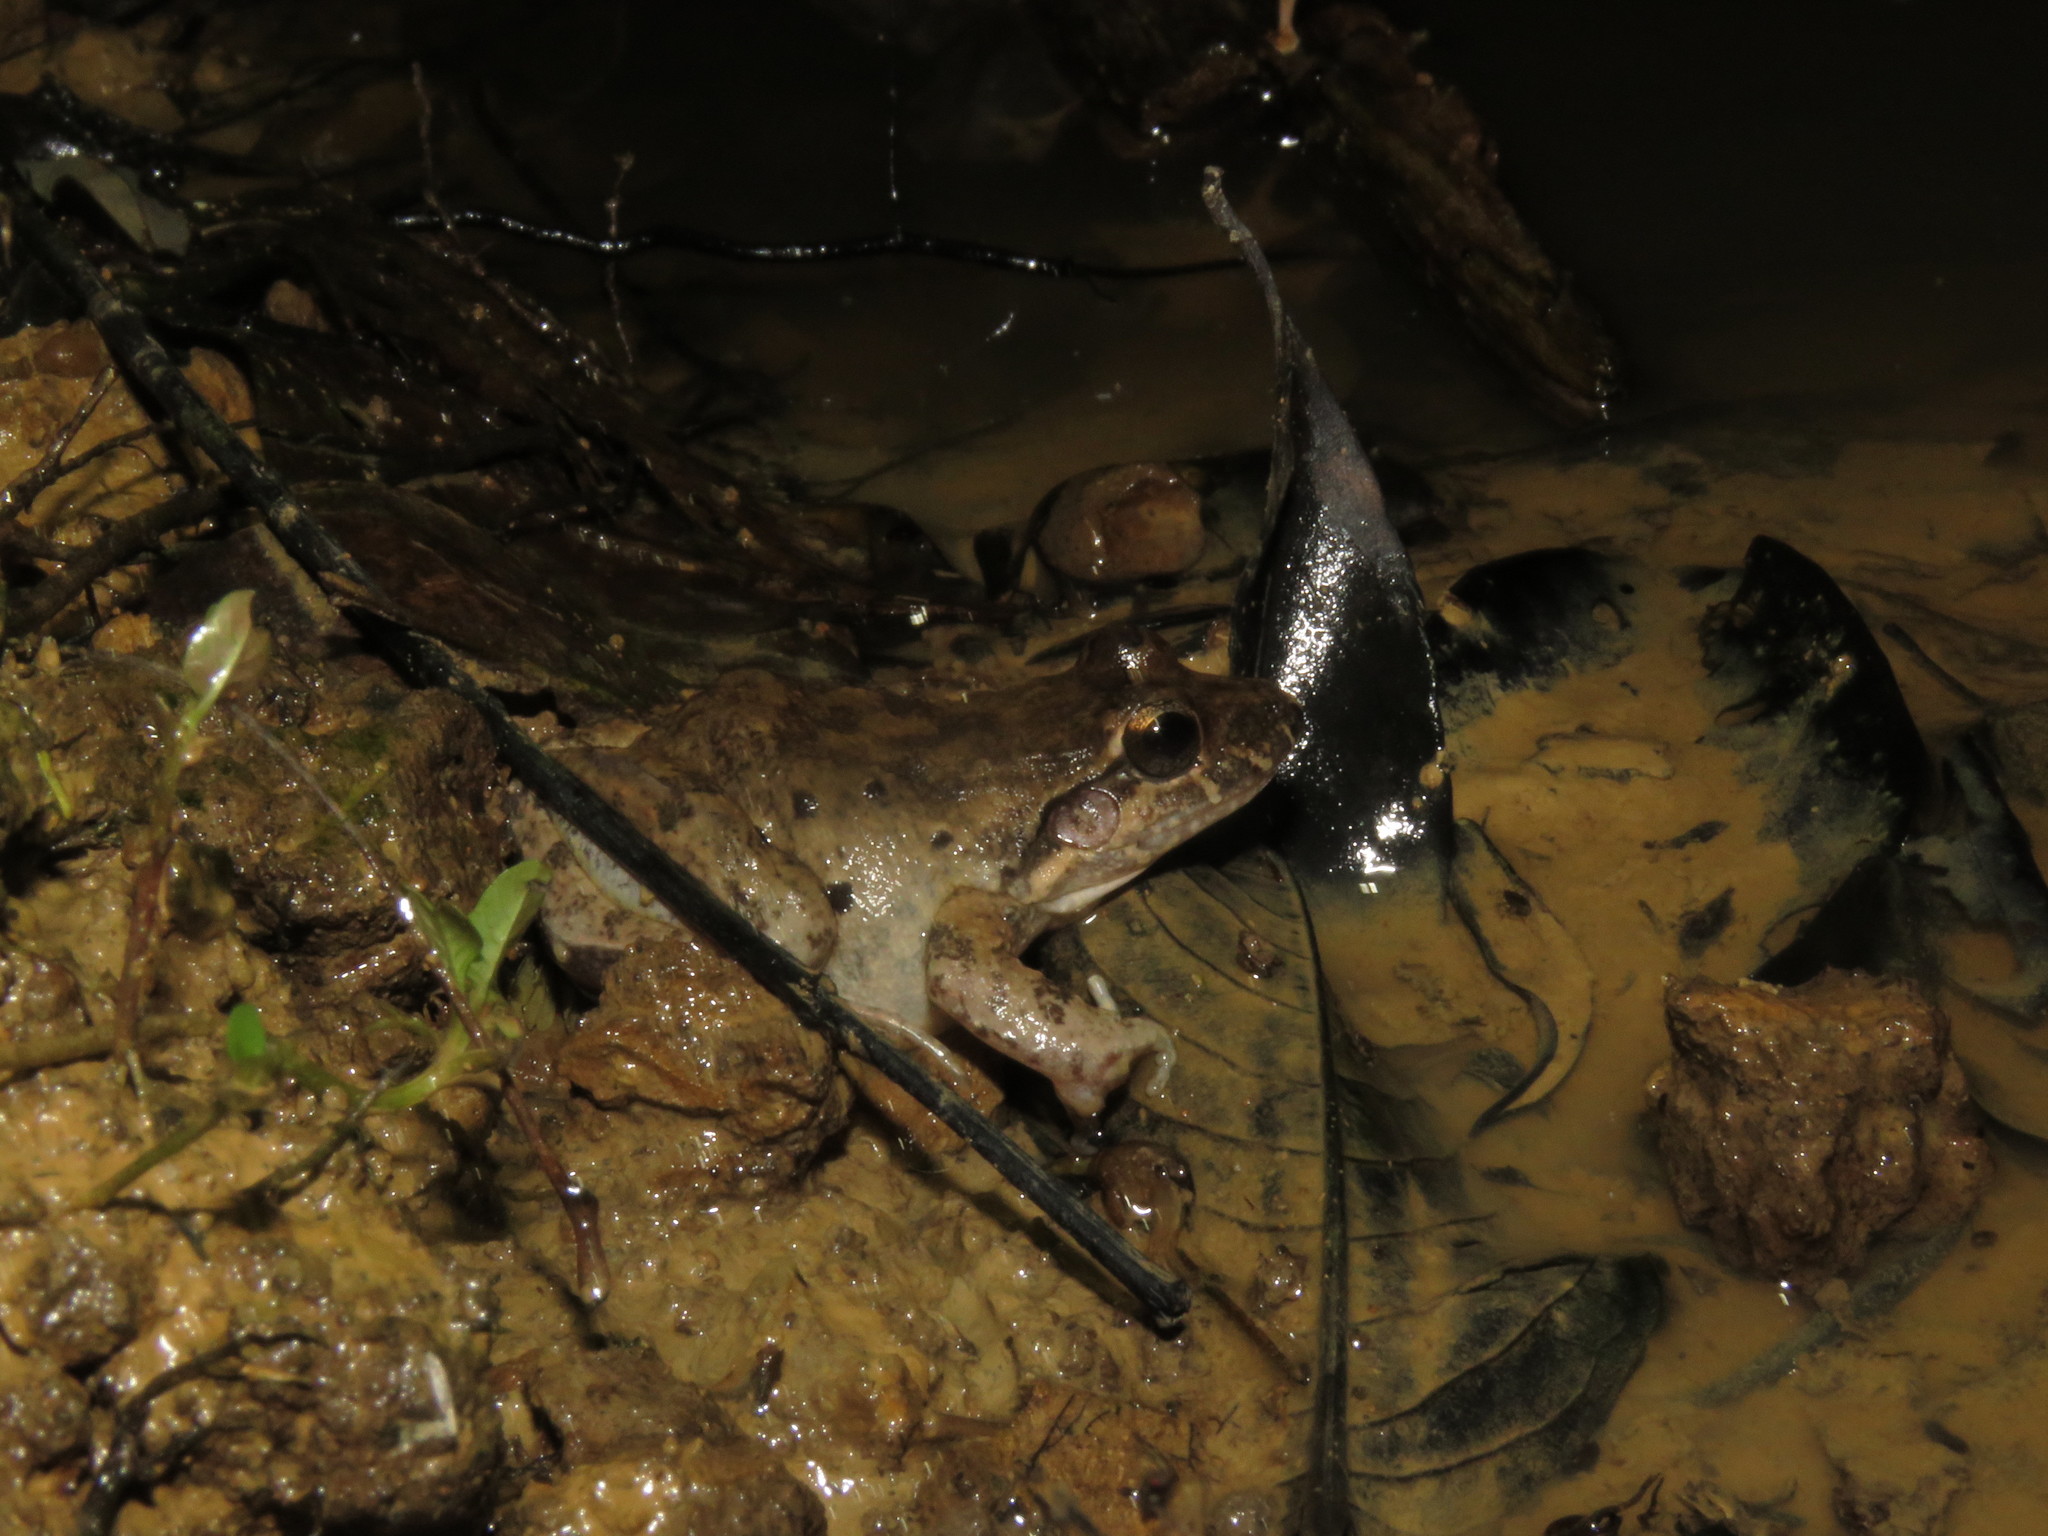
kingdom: Animalia
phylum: Chordata
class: Amphibia
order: Anura
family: Leptodactylidae
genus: Leptodactylus
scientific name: Leptodactylus podicipinus
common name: Pointedbelly frog
